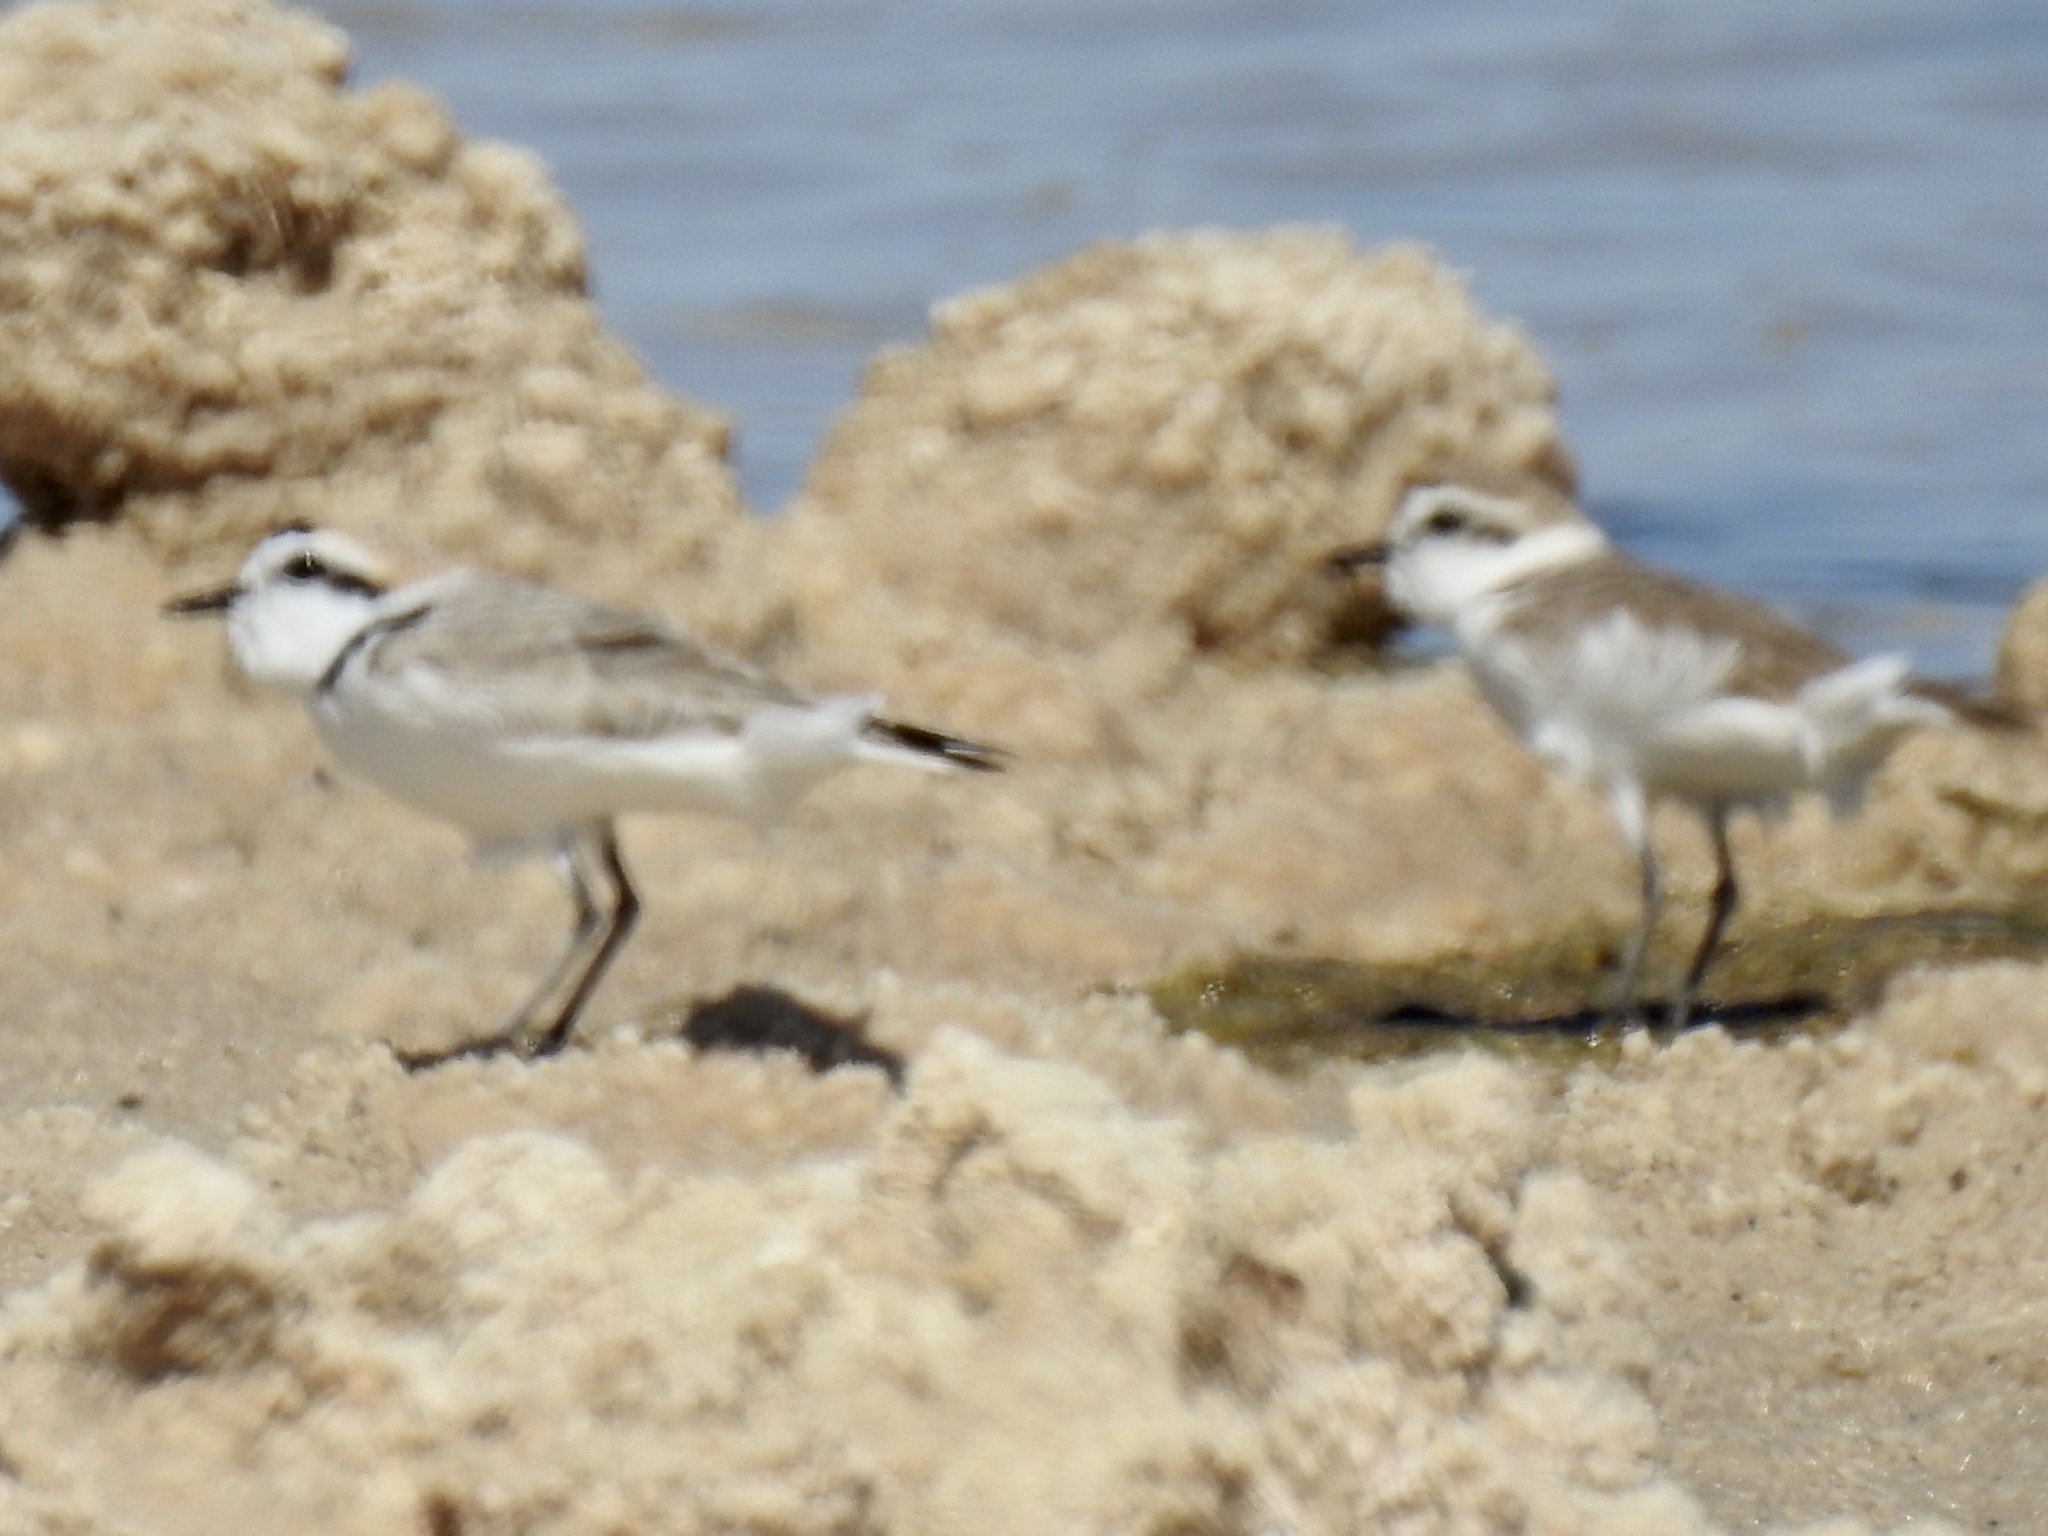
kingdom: Animalia
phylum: Chordata
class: Aves
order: Charadriiformes
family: Charadriidae
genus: Anarhynchus
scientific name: Anarhynchus
